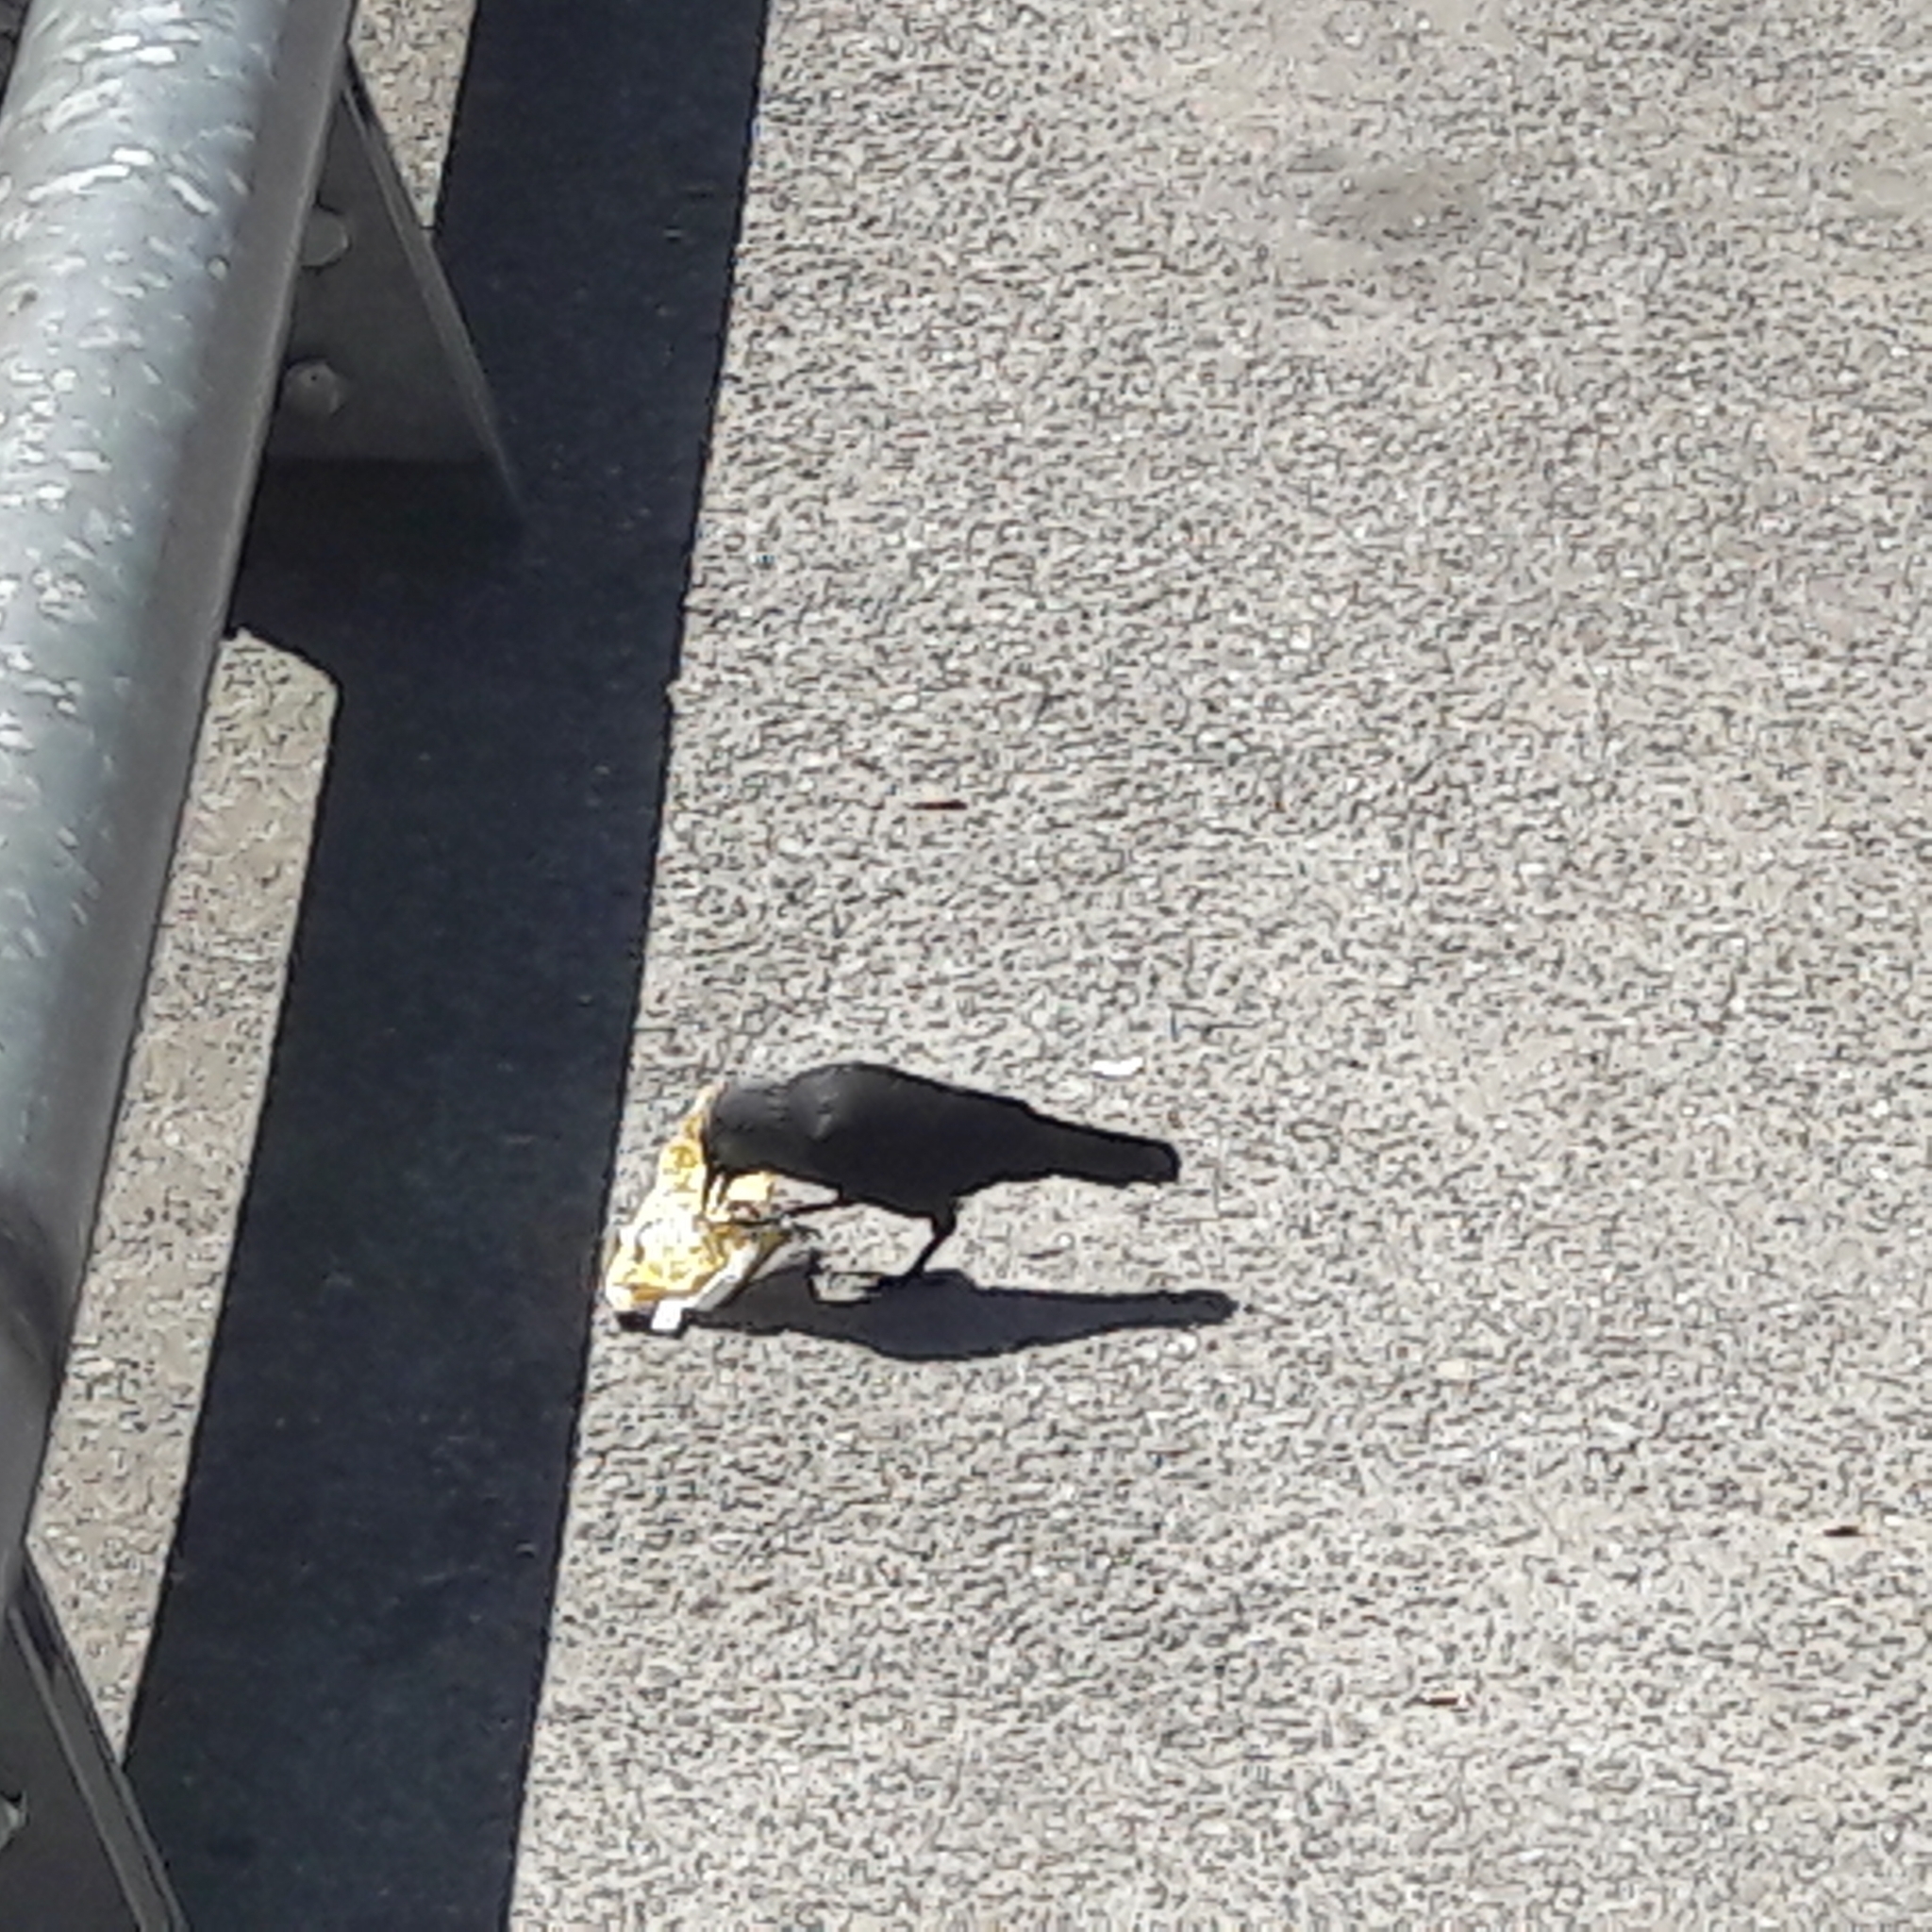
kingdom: Animalia
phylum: Chordata
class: Aves
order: Passeriformes
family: Corvidae
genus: Coloeus
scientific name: Coloeus monedula
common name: Western jackdaw
